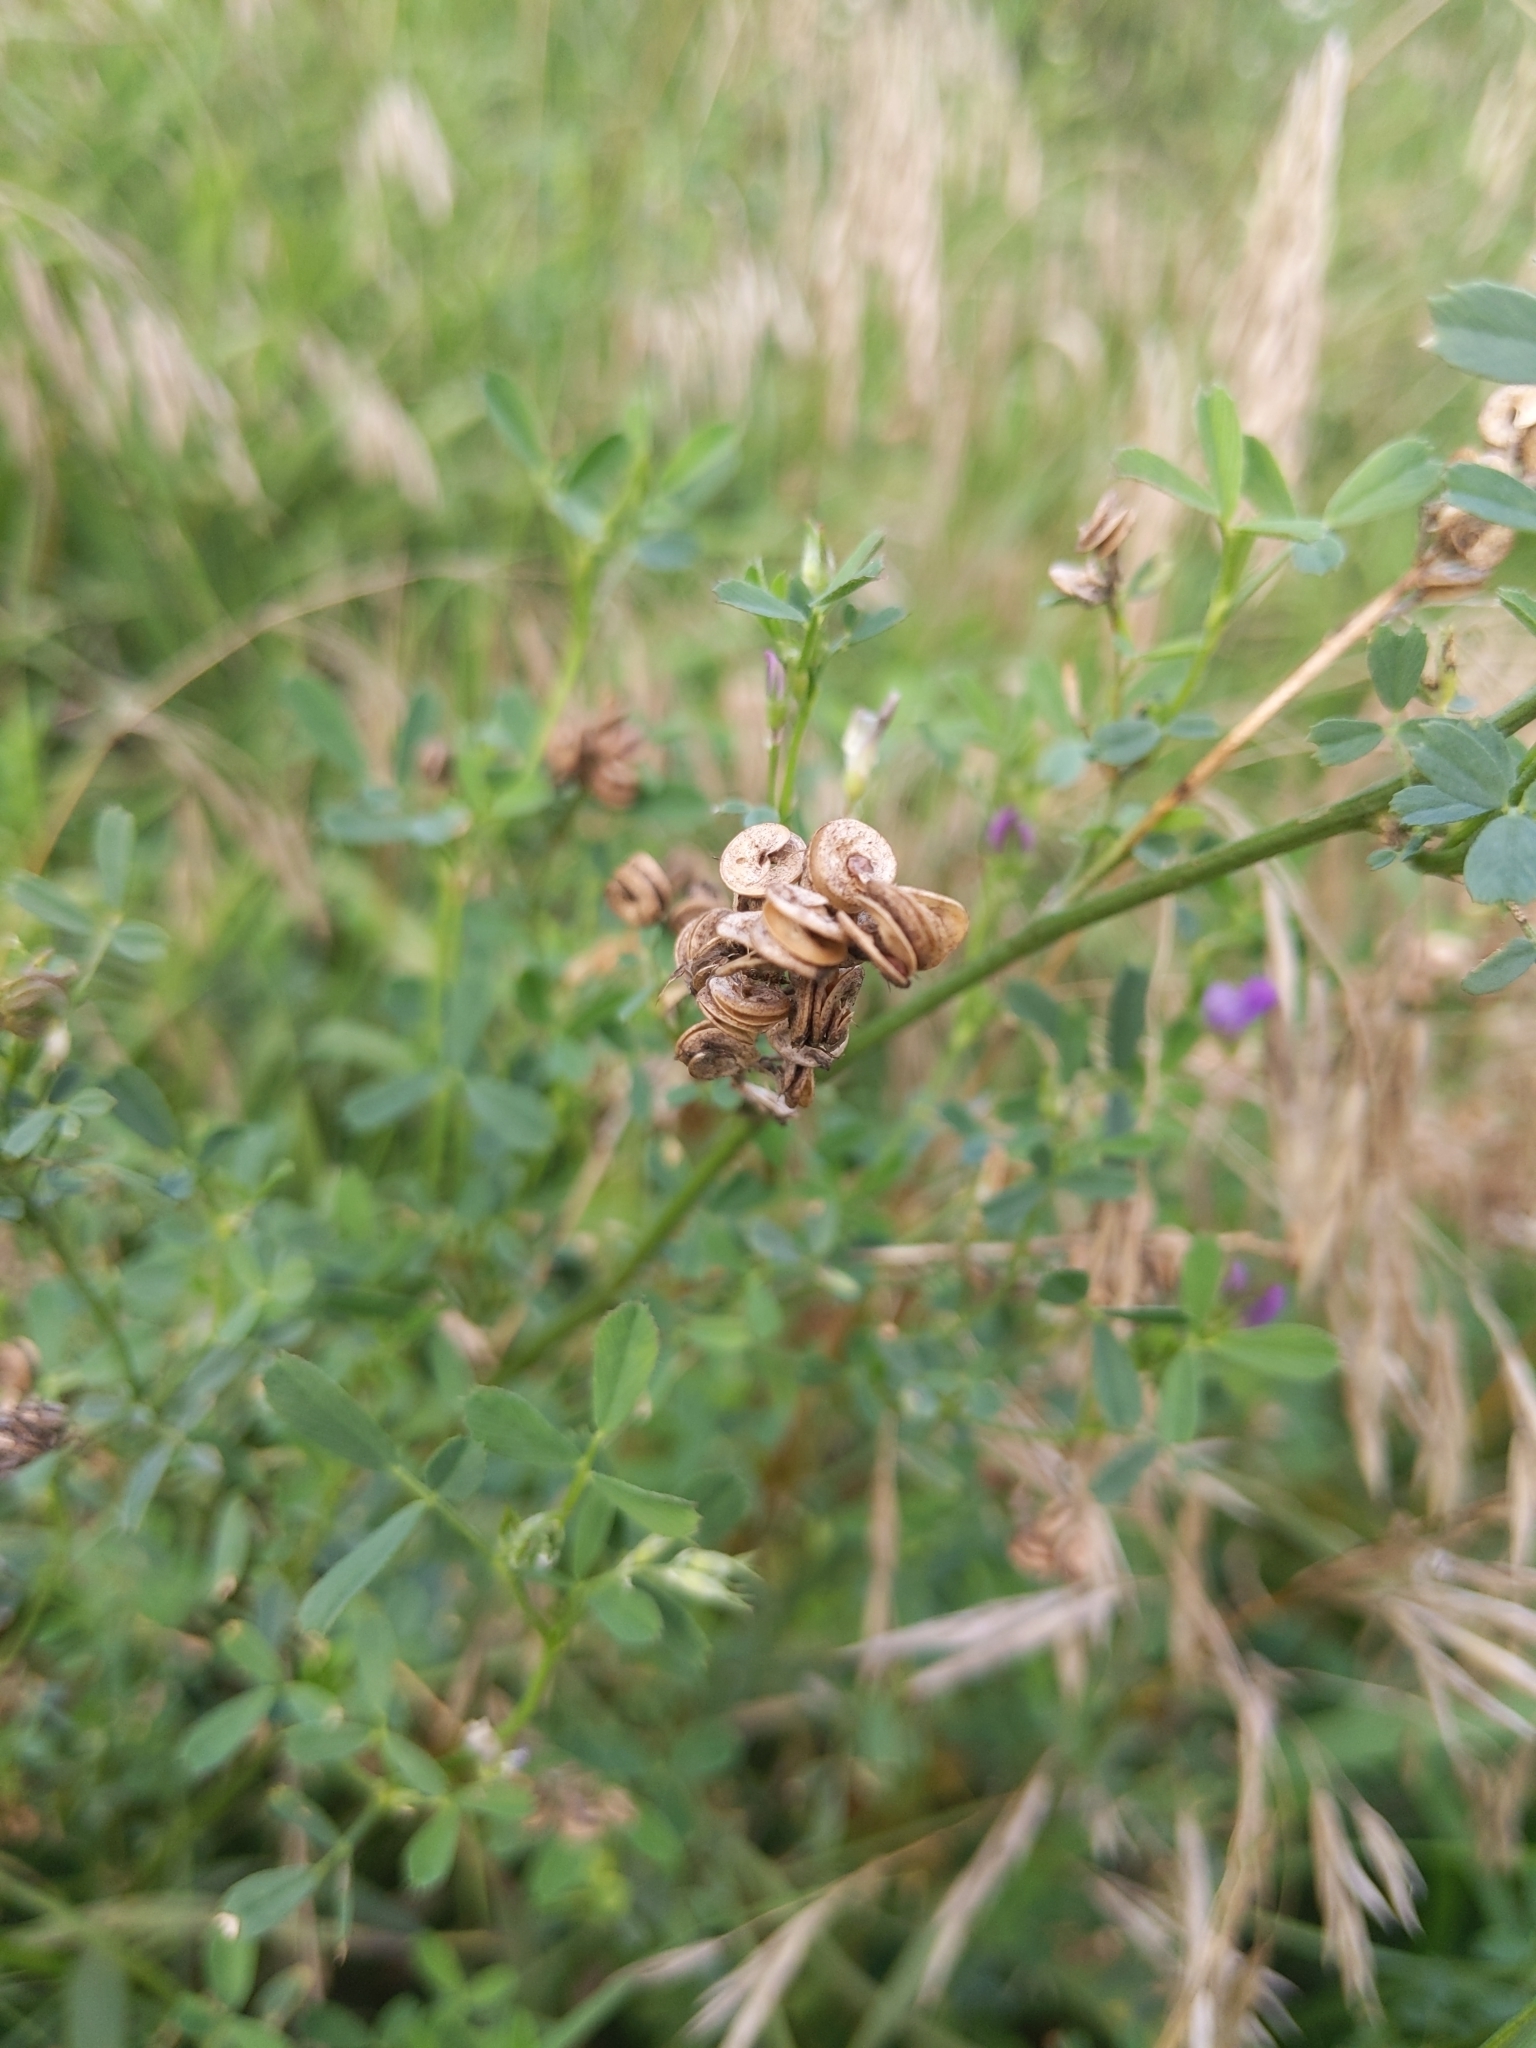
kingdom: Plantae
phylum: Tracheophyta
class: Magnoliopsida
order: Fabales
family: Fabaceae
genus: Medicago
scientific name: Medicago sativa
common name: Alfalfa
